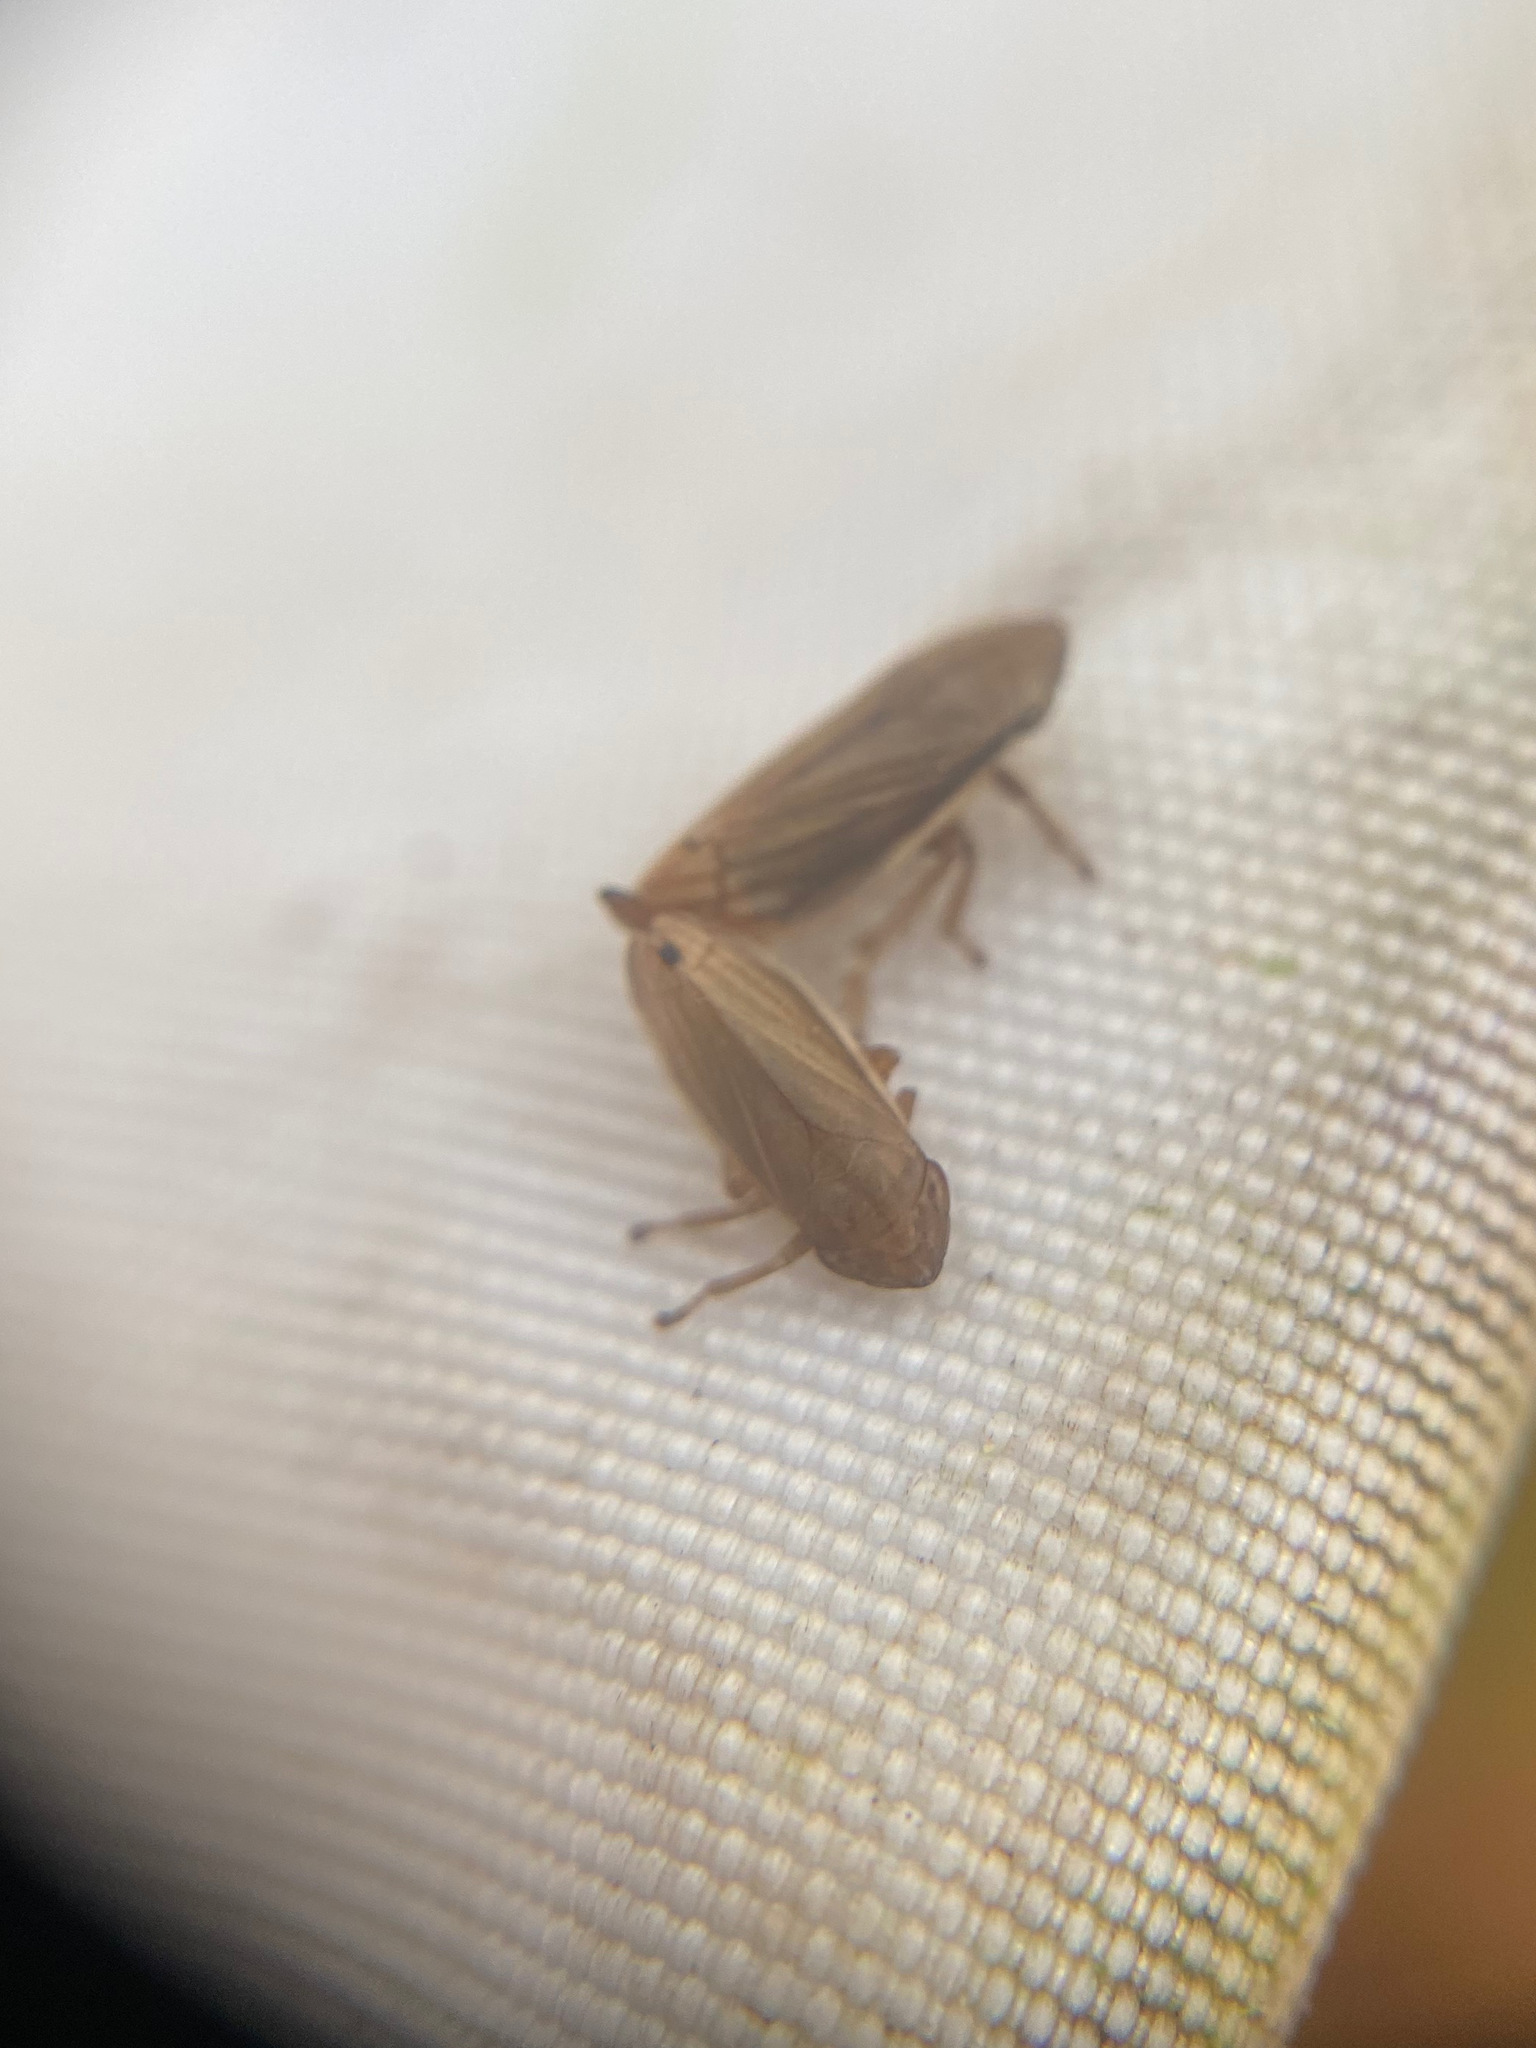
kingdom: Animalia
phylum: Arthropoda
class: Insecta
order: Hemiptera
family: Aphrophoridae
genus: Neophilaenus
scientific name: Neophilaenus lineatus
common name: Spittlebug
